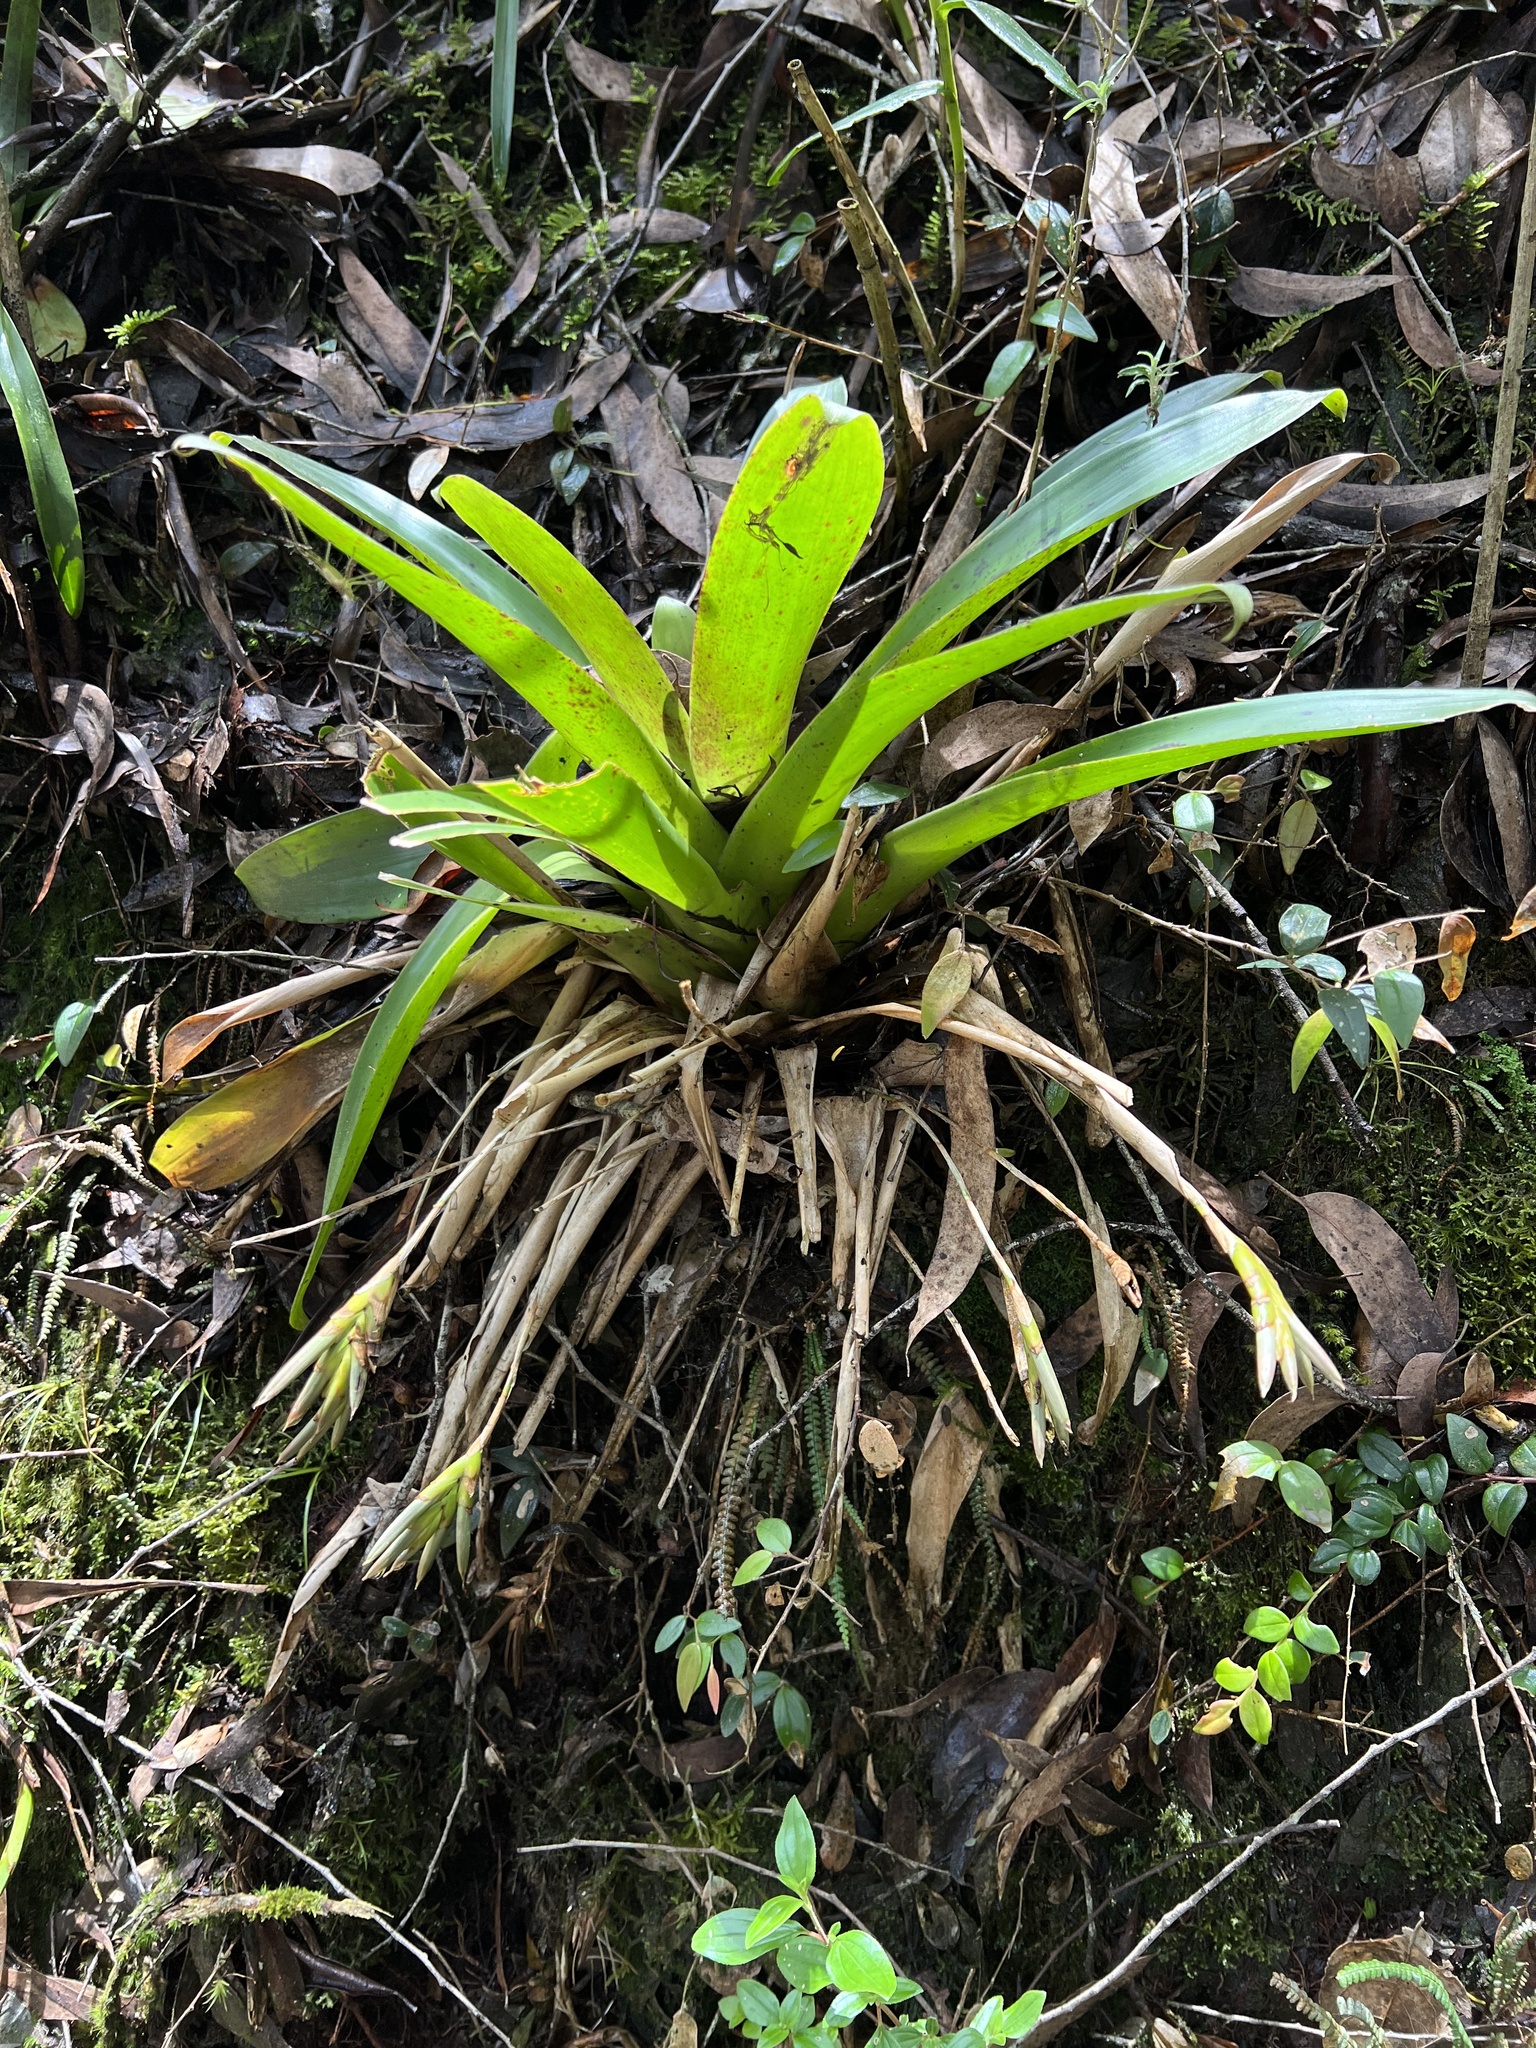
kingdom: Plantae
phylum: Tracheophyta
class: Liliopsida
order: Poales
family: Bromeliaceae
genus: Tillandsia
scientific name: Tillandsia complanata
